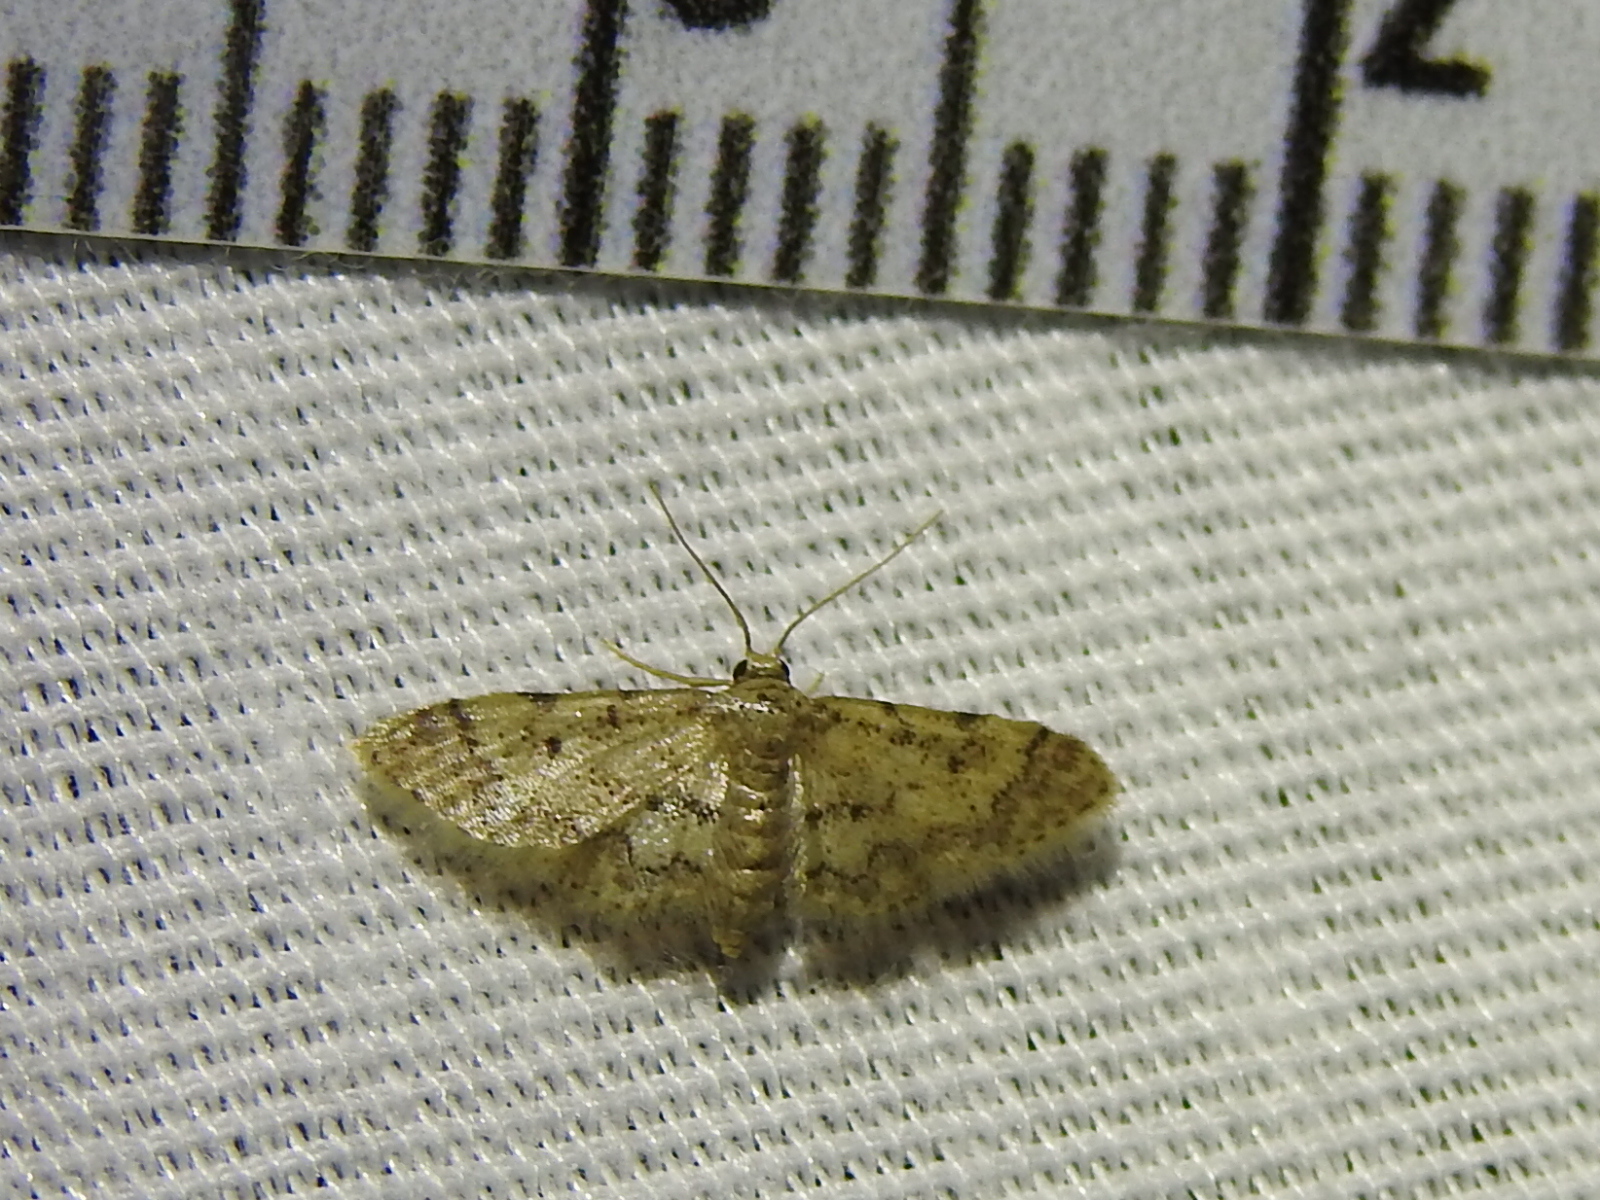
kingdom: Animalia
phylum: Arthropoda
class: Insecta
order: Lepidoptera
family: Geometridae
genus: Idaea
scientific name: Idaea pervertipennis
